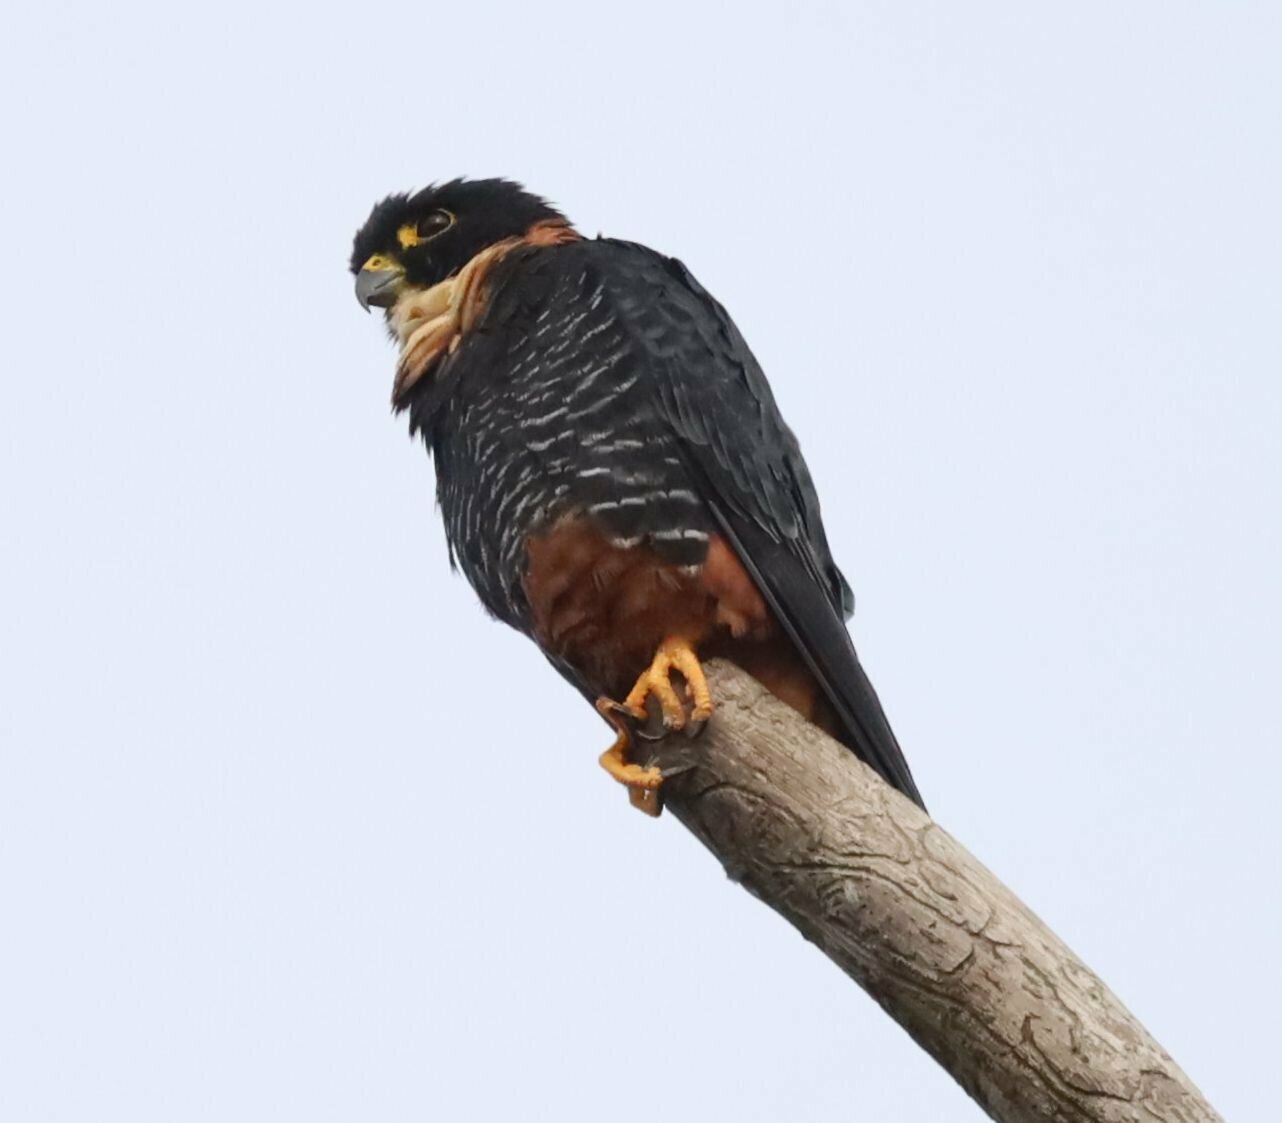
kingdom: Animalia
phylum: Chordata
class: Aves
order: Falconiformes
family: Falconidae
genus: Falco
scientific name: Falco rufigularis
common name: Bat falcon
